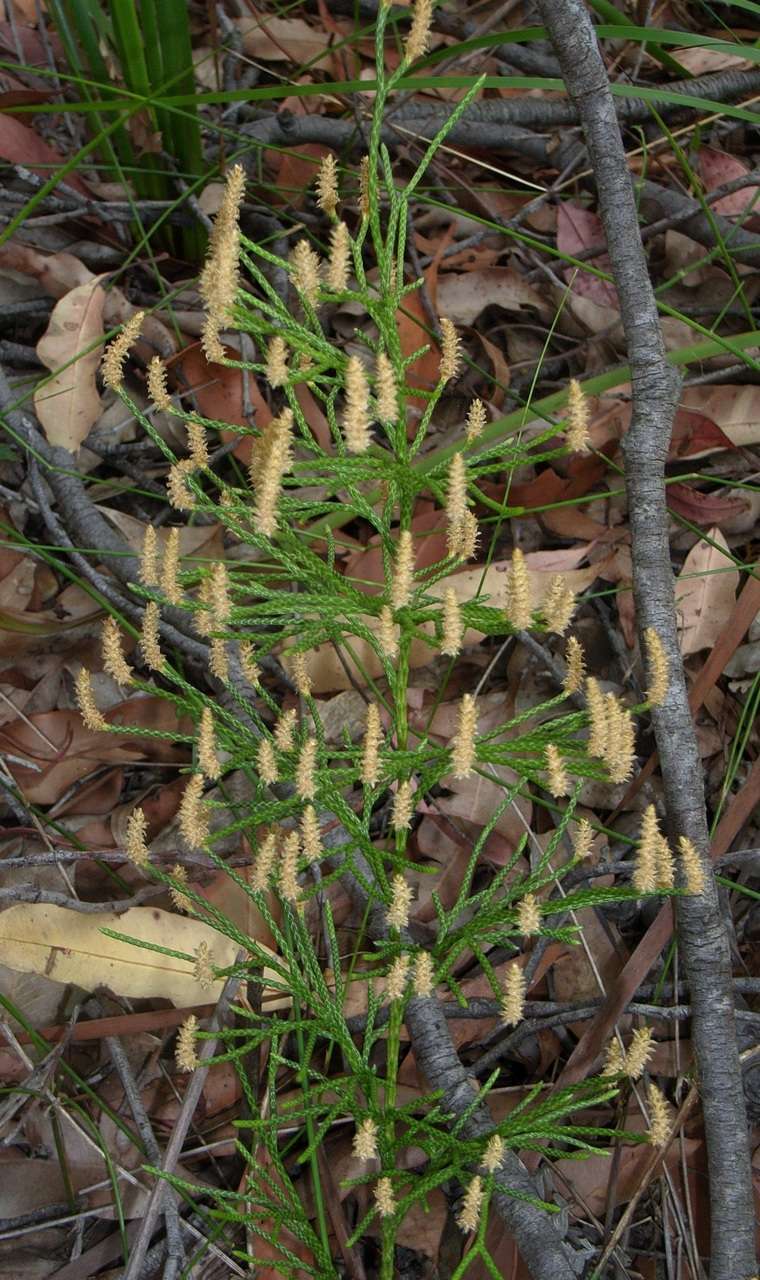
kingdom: Plantae
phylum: Tracheophyta
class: Lycopodiopsida
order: Lycopodiales
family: Lycopodiaceae
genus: Pseudolycopodium
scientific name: Pseudolycopodium densum
